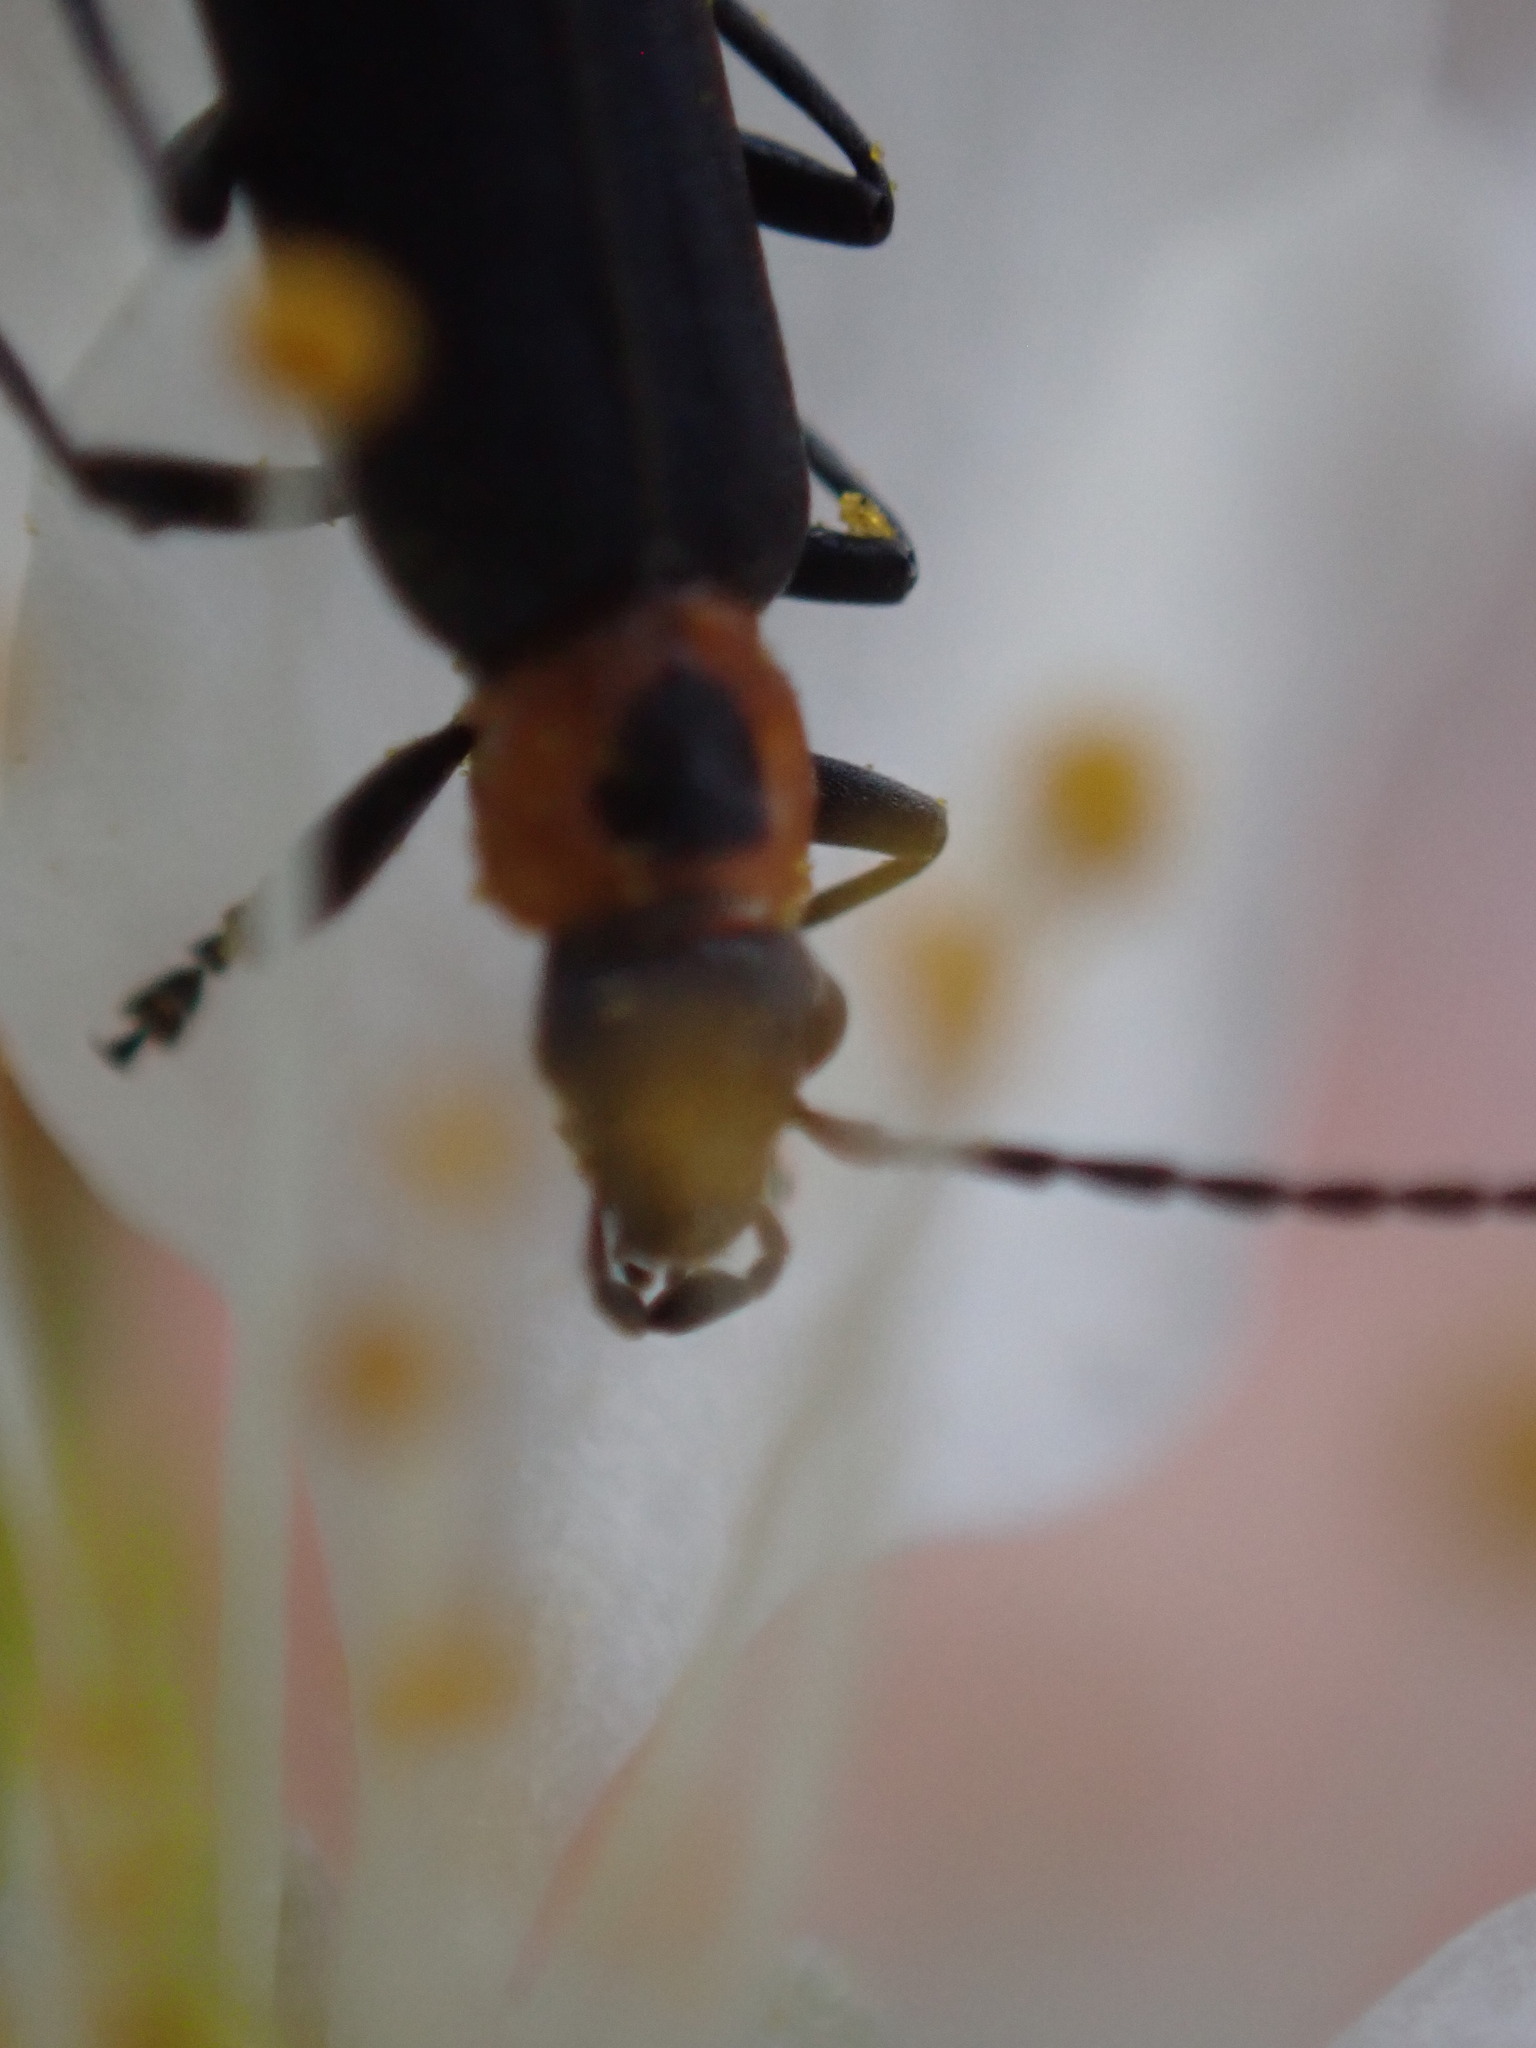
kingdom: Animalia
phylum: Arthropoda
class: Insecta
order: Coleoptera
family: Oedemeridae
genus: Ischnomera
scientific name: Ischnomera
